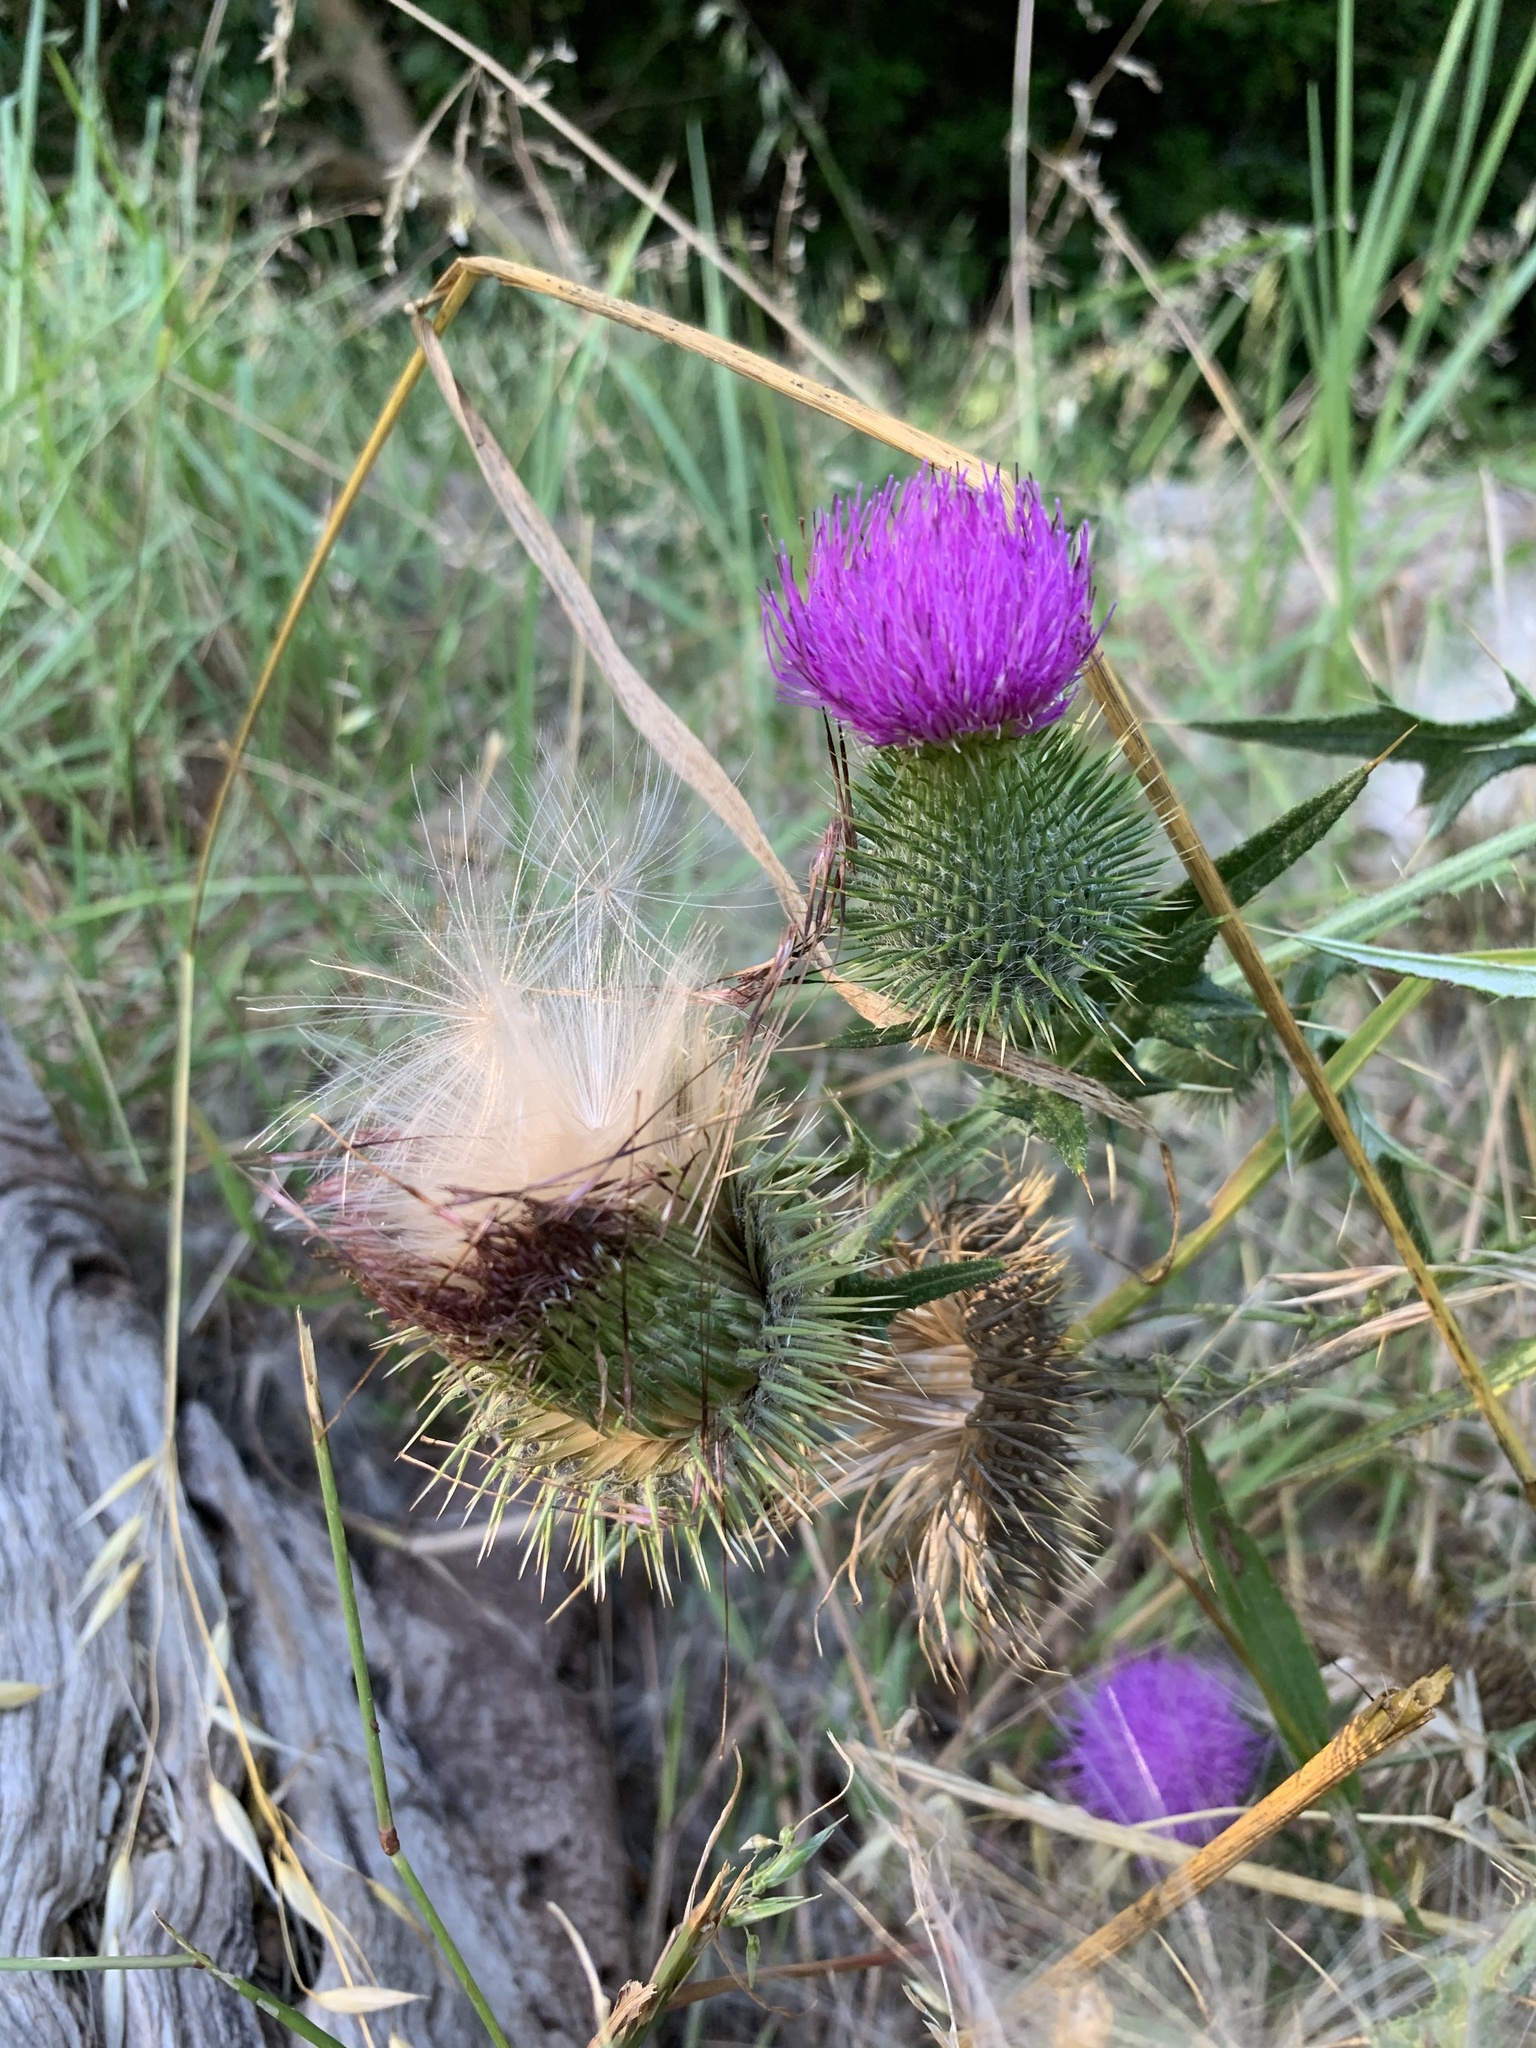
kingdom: Plantae
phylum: Tracheophyta
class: Magnoliopsida
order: Asterales
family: Asteraceae
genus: Cirsium
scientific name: Cirsium vulgare
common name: Bull thistle
